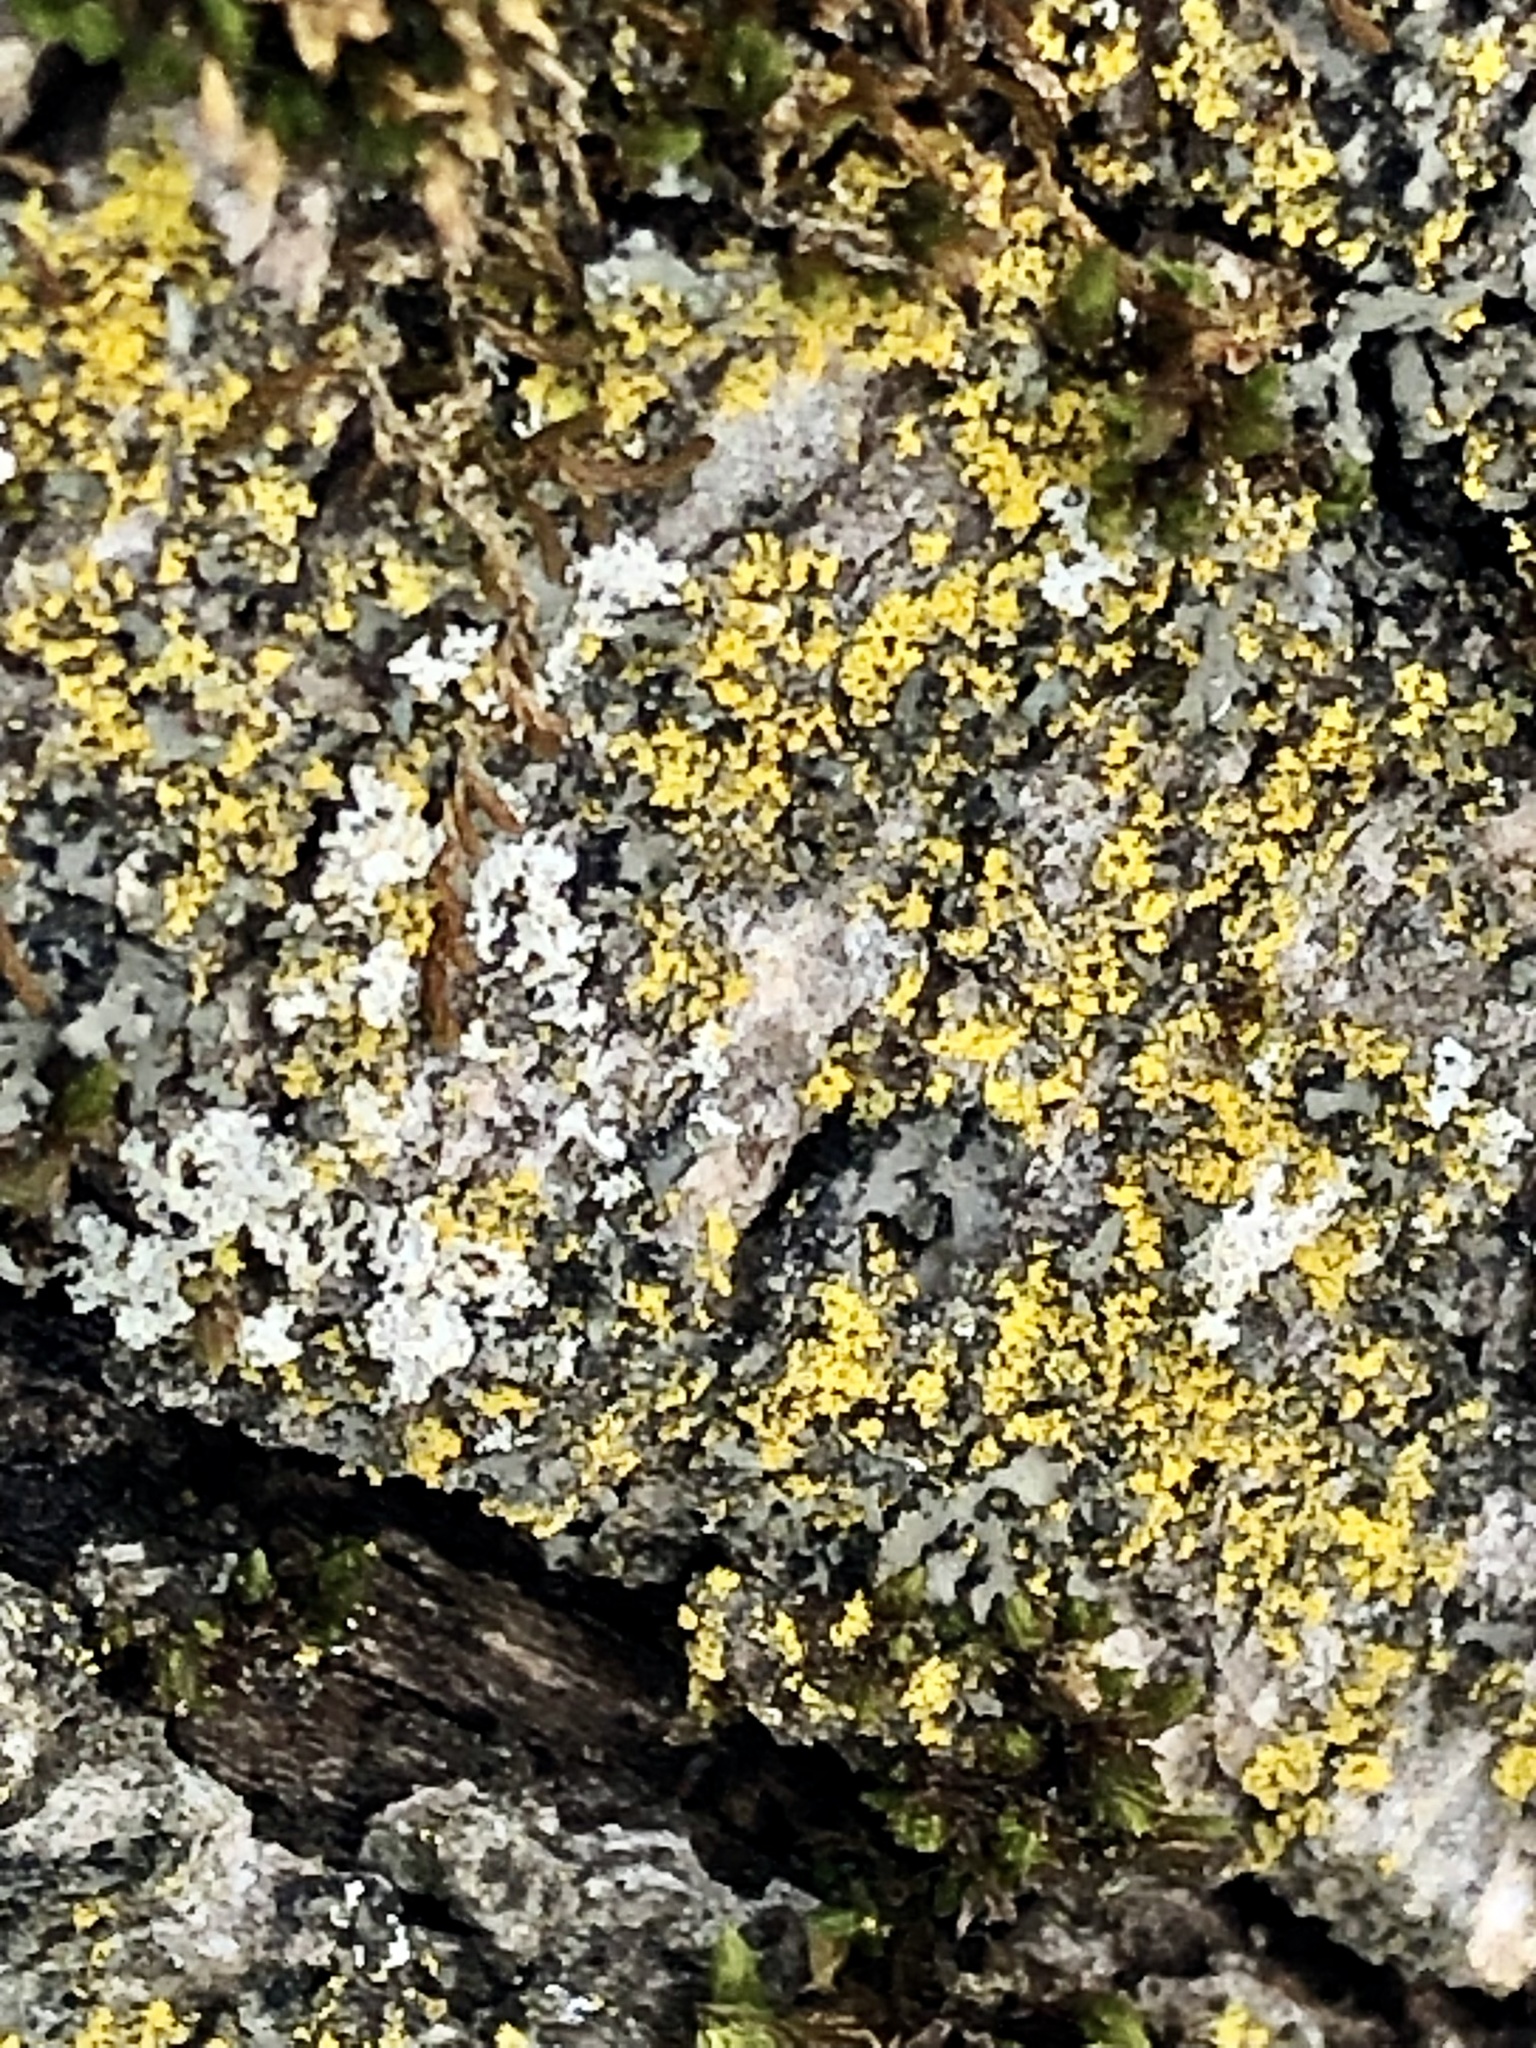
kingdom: Fungi
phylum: Ascomycota
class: Candelariomycetes
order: Candelariales
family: Candelariaceae
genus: Candelaria
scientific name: Candelaria concolor
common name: Candleflame lichen
